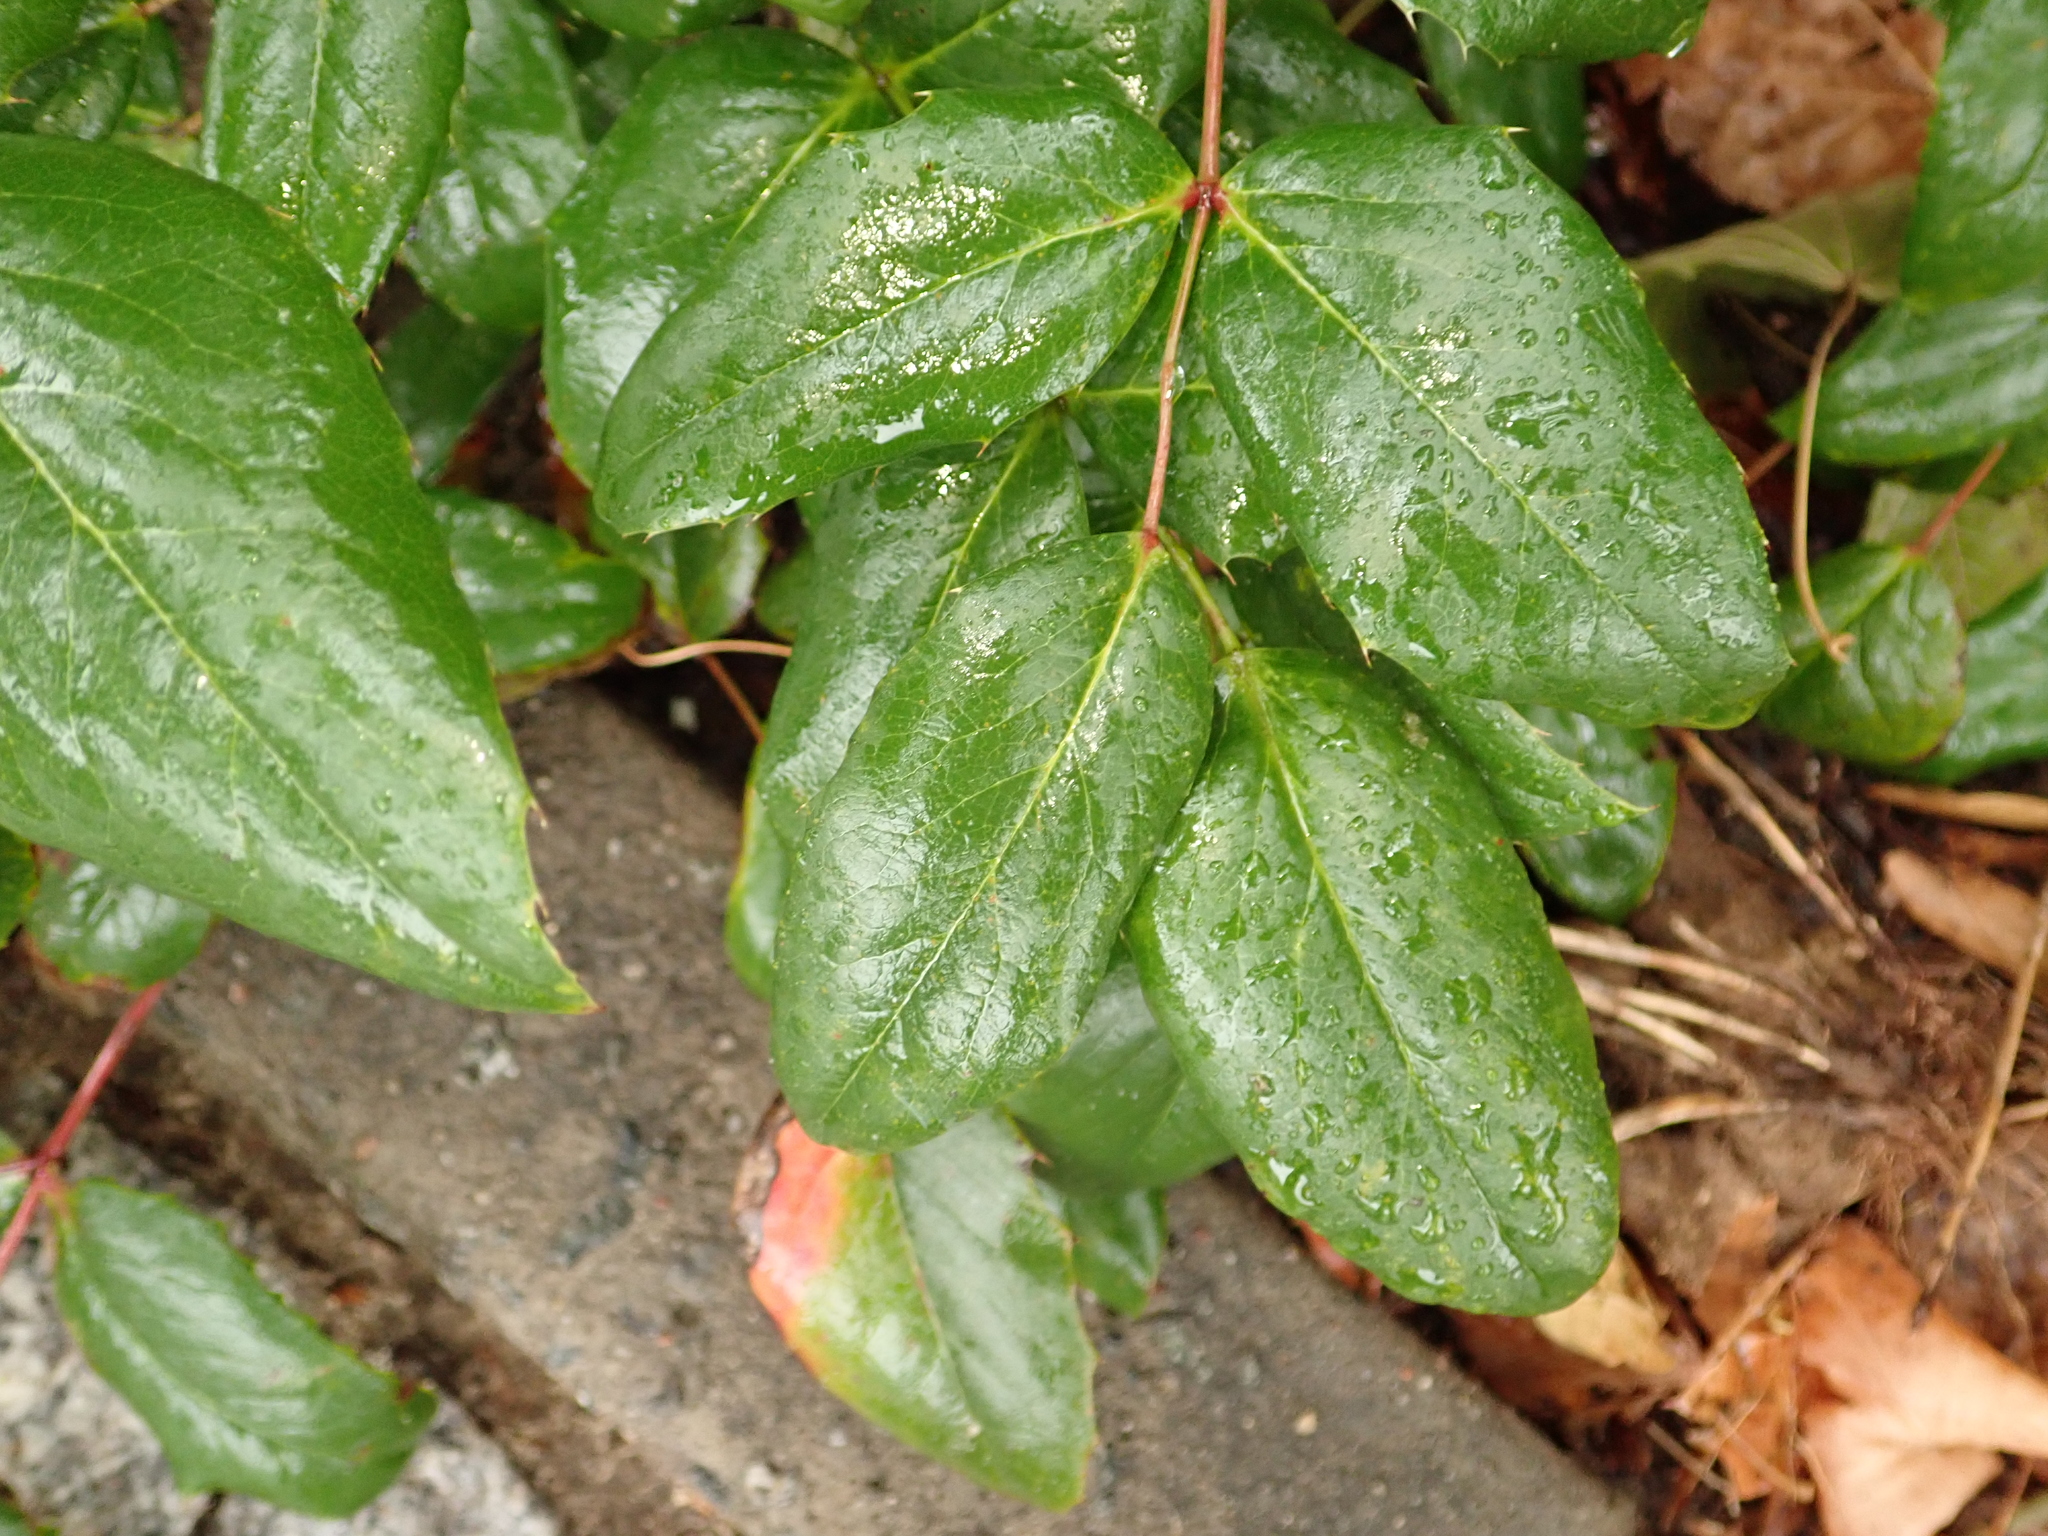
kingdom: Plantae
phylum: Tracheophyta
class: Magnoliopsida
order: Ranunculales
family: Berberidaceae
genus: Mahonia
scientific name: Mahonia aquifolium
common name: Oregon-grape
